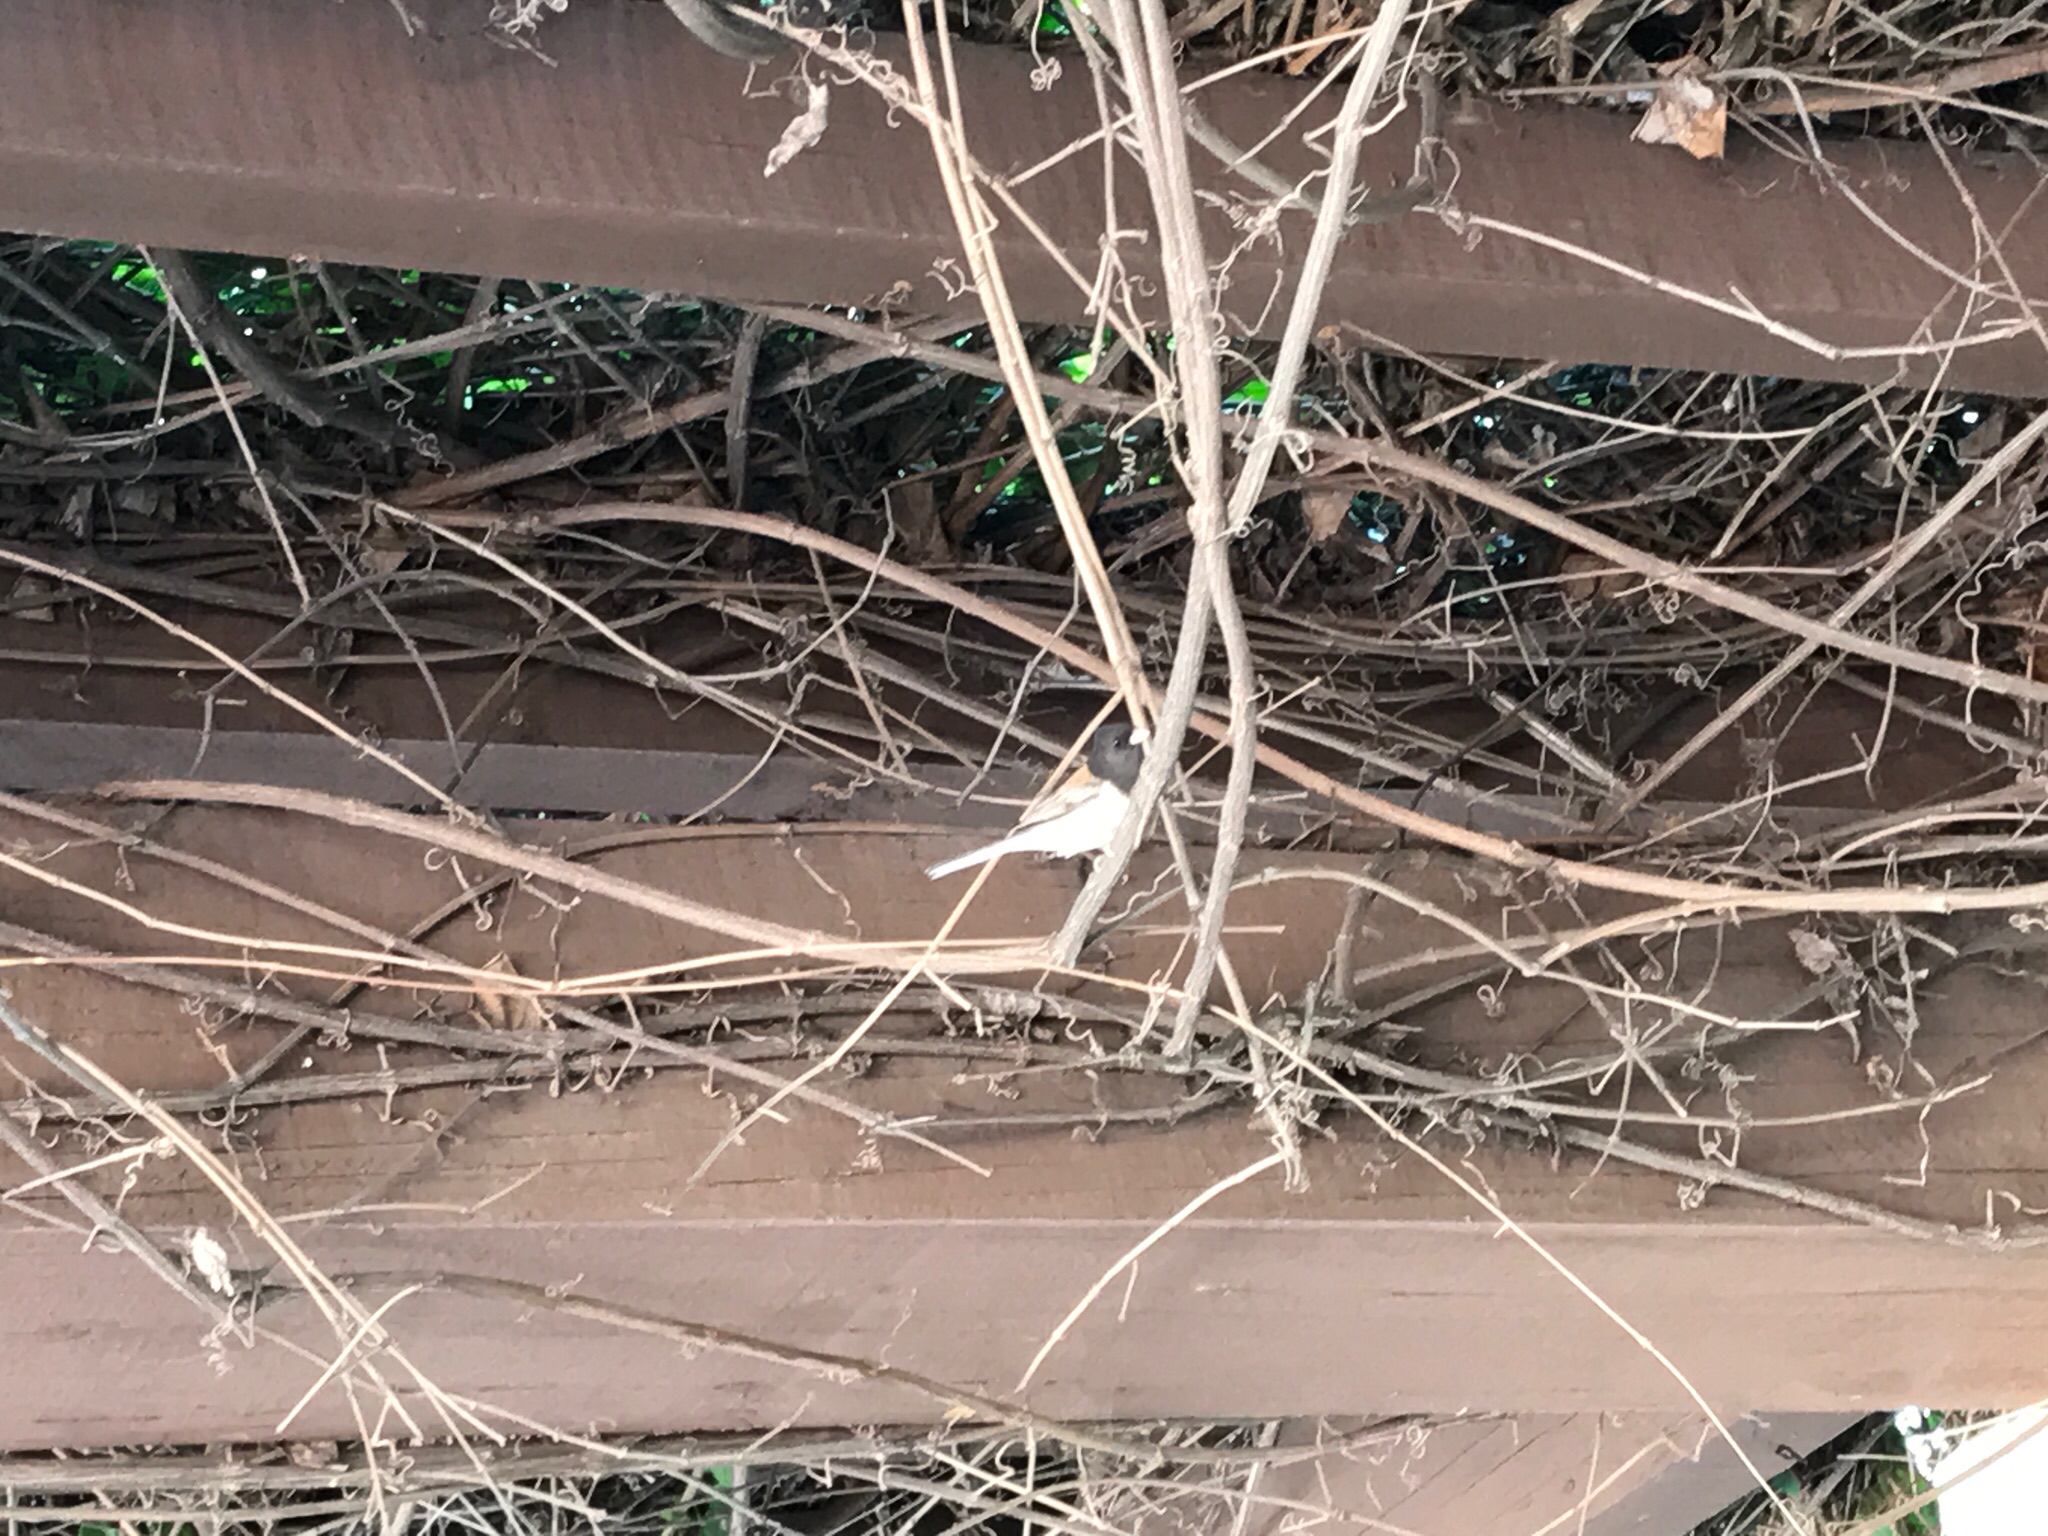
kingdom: Animalia
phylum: Chordata
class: Aves
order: Passeriformes
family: Passerellidae
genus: Junco
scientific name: Junco hyemalis
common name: Dark-eyed junco
